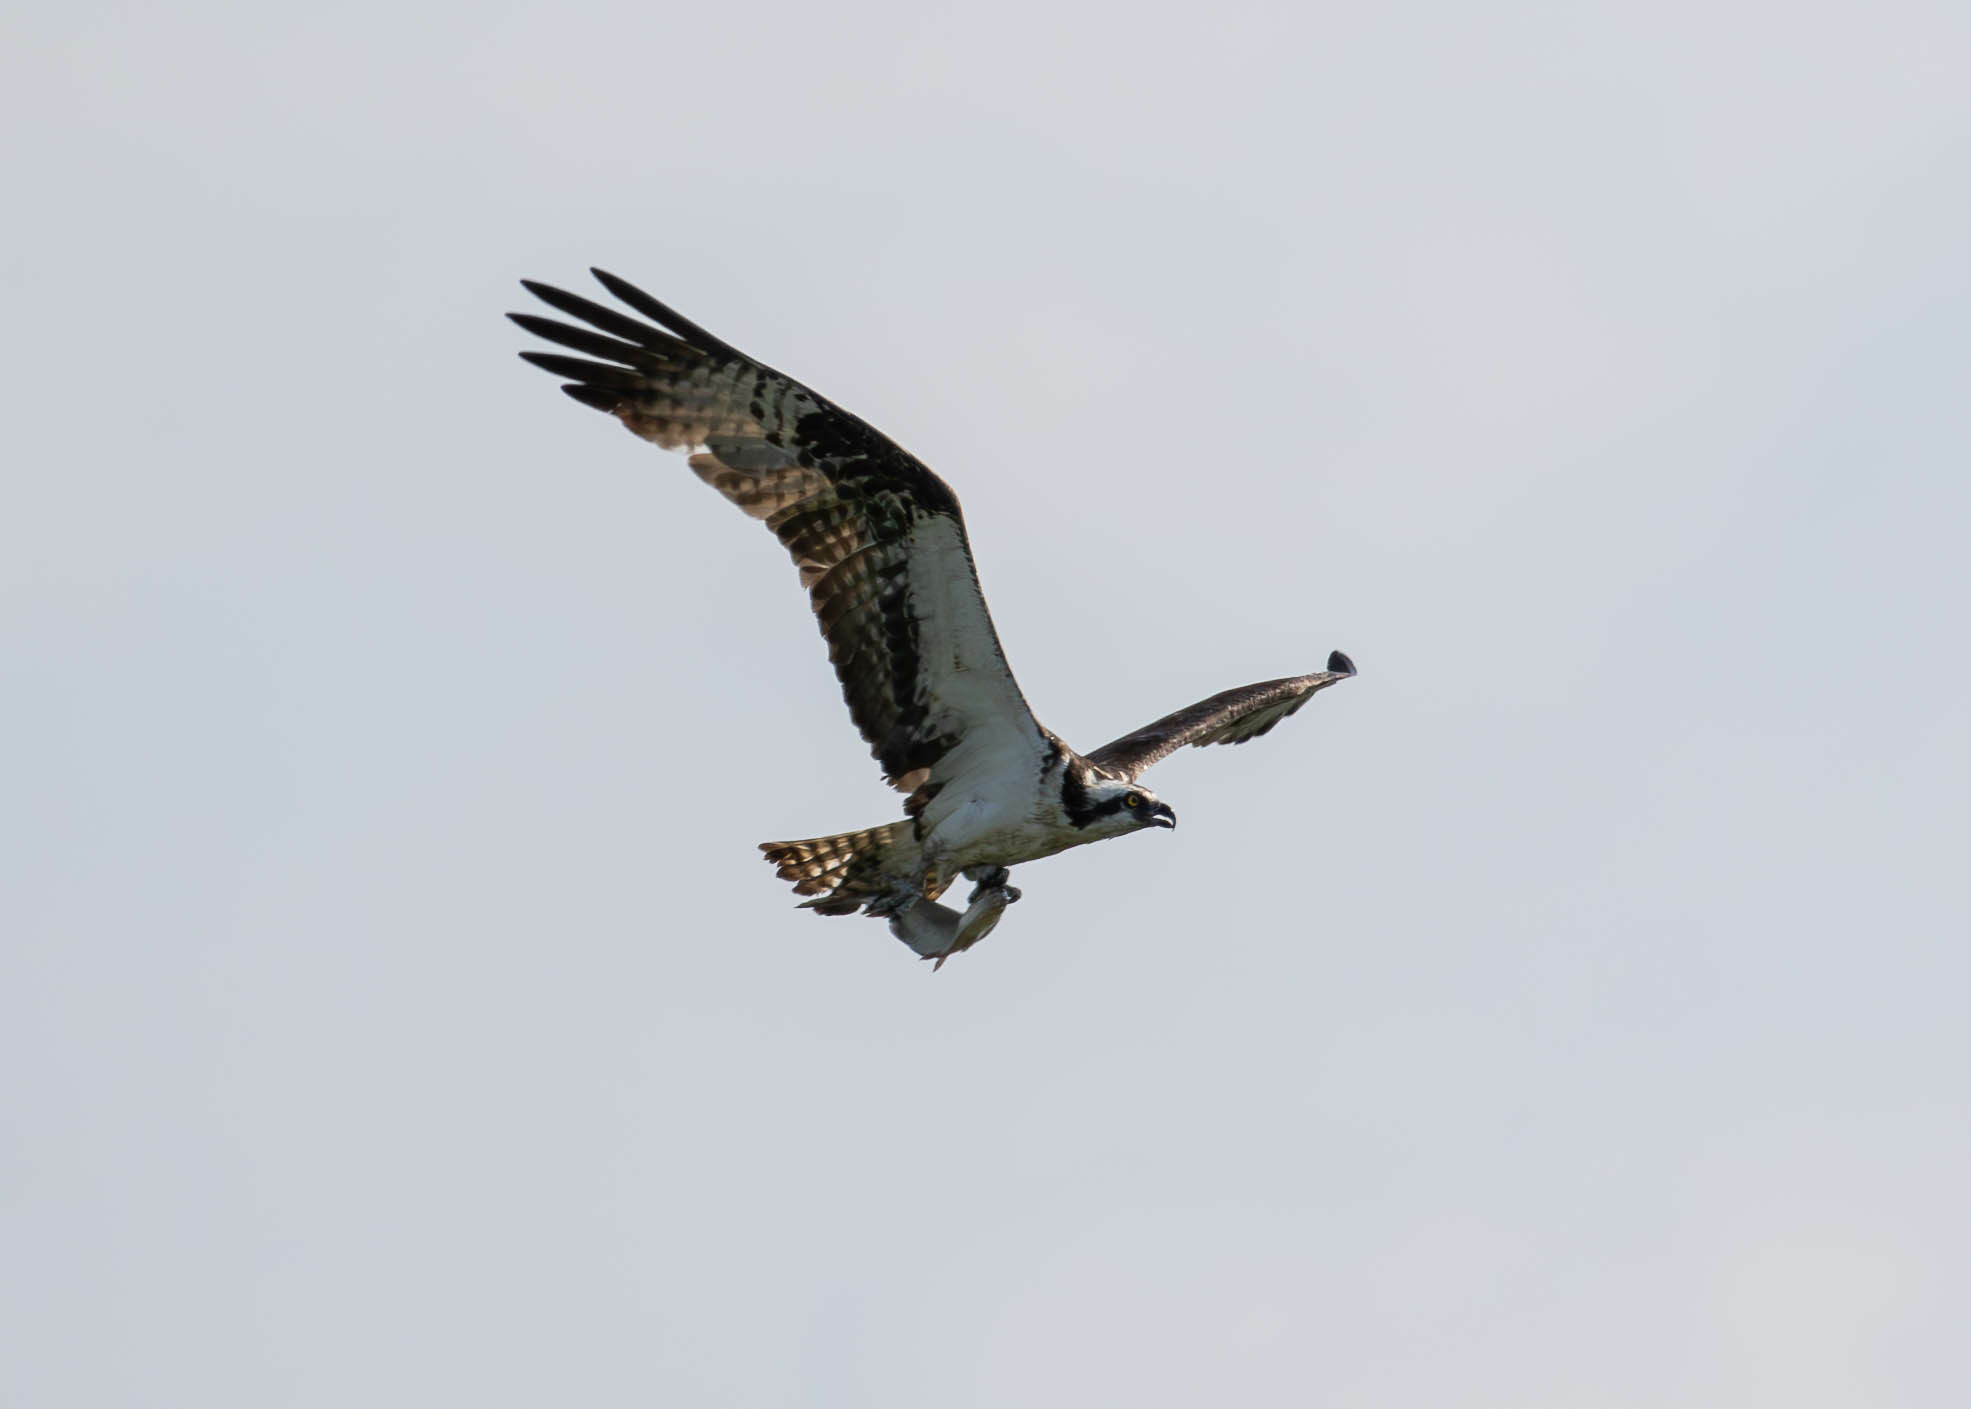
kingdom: Animalia
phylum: Chordata
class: Aves
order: Accipitriformes
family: Pandionidae
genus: Pandion
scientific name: Pandion haliaetus
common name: Osprey
